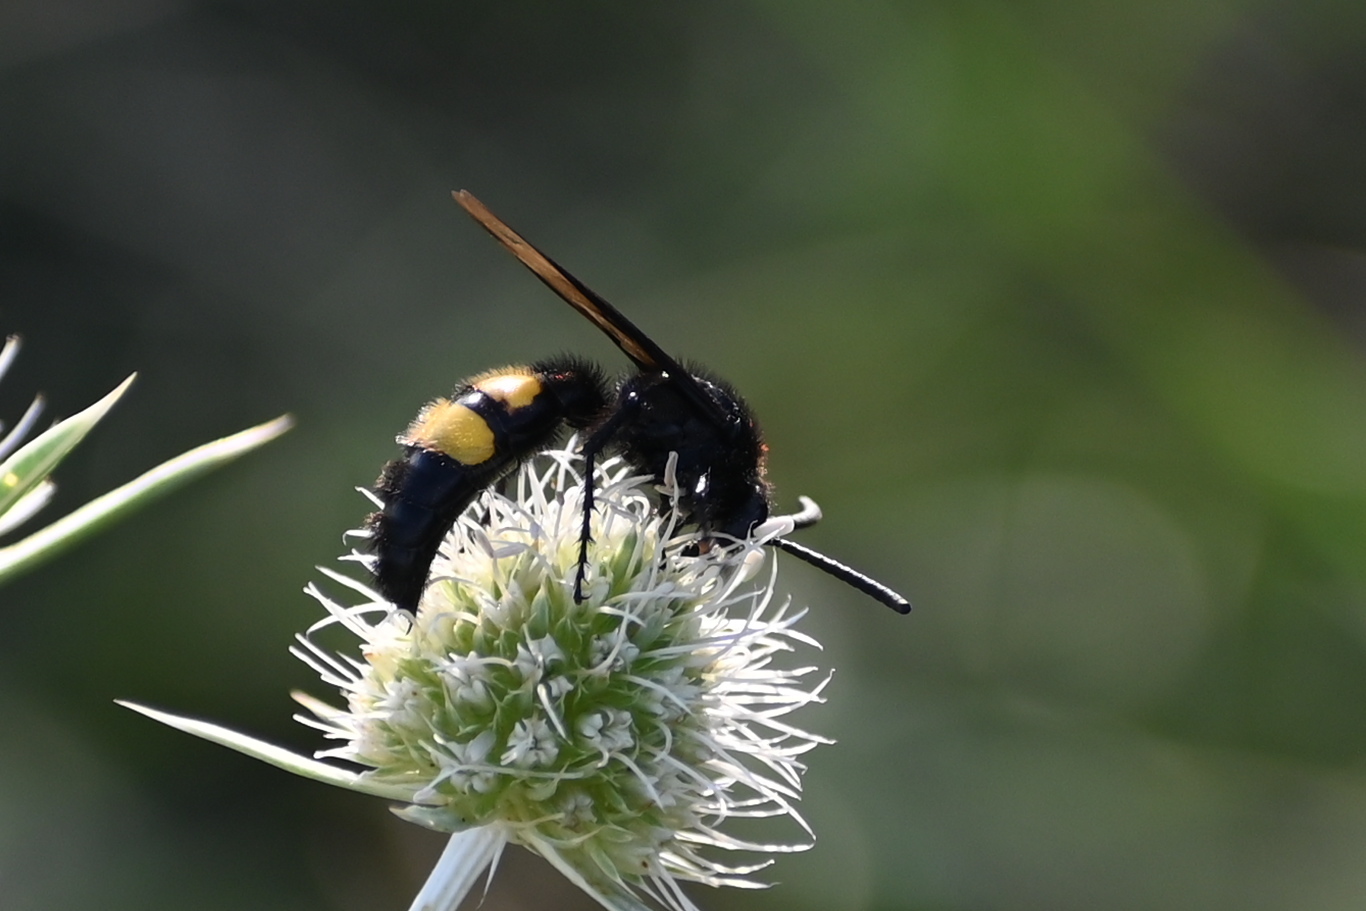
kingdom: Animalia
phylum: Arthropoda
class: Insecta
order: Hymenoptera
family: Scoliidae
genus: Scolia
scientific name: Scolia hirta
